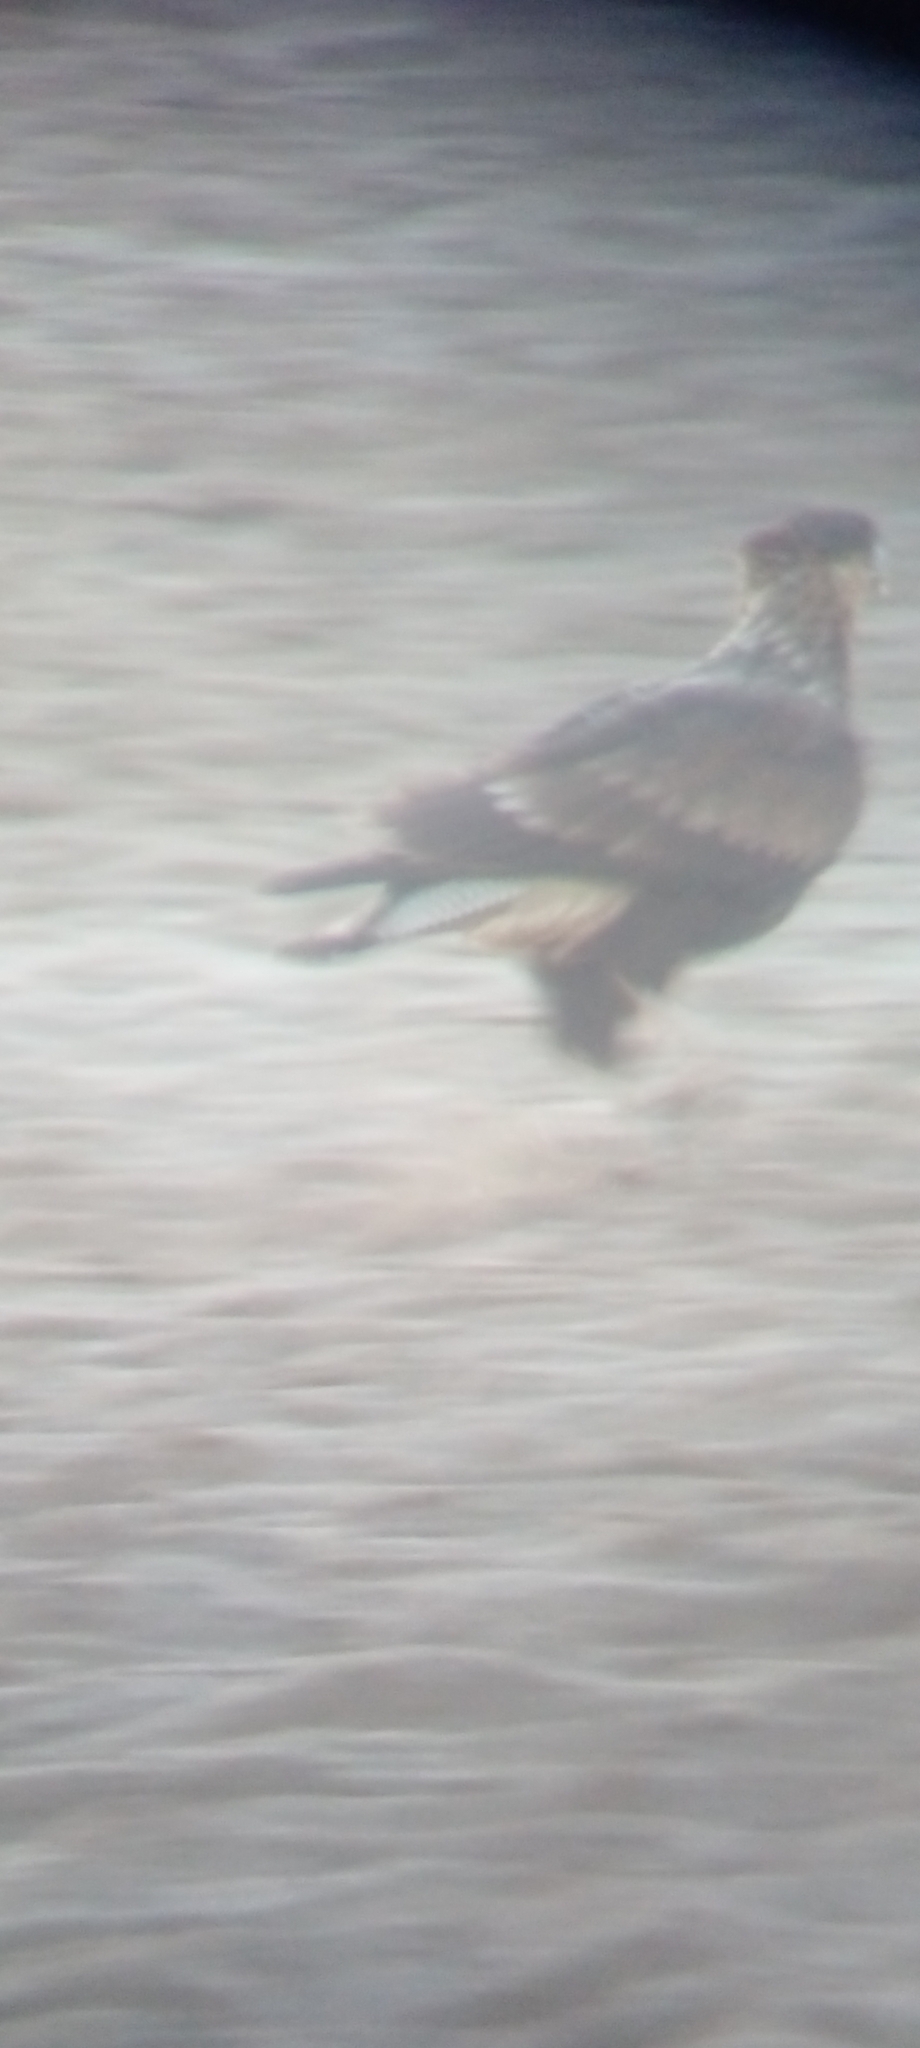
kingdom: Animalia
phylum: Chordata
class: Aves
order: Falconiformes
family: Falconidae
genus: Caracara
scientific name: Caracara plancus
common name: Southern caracara
